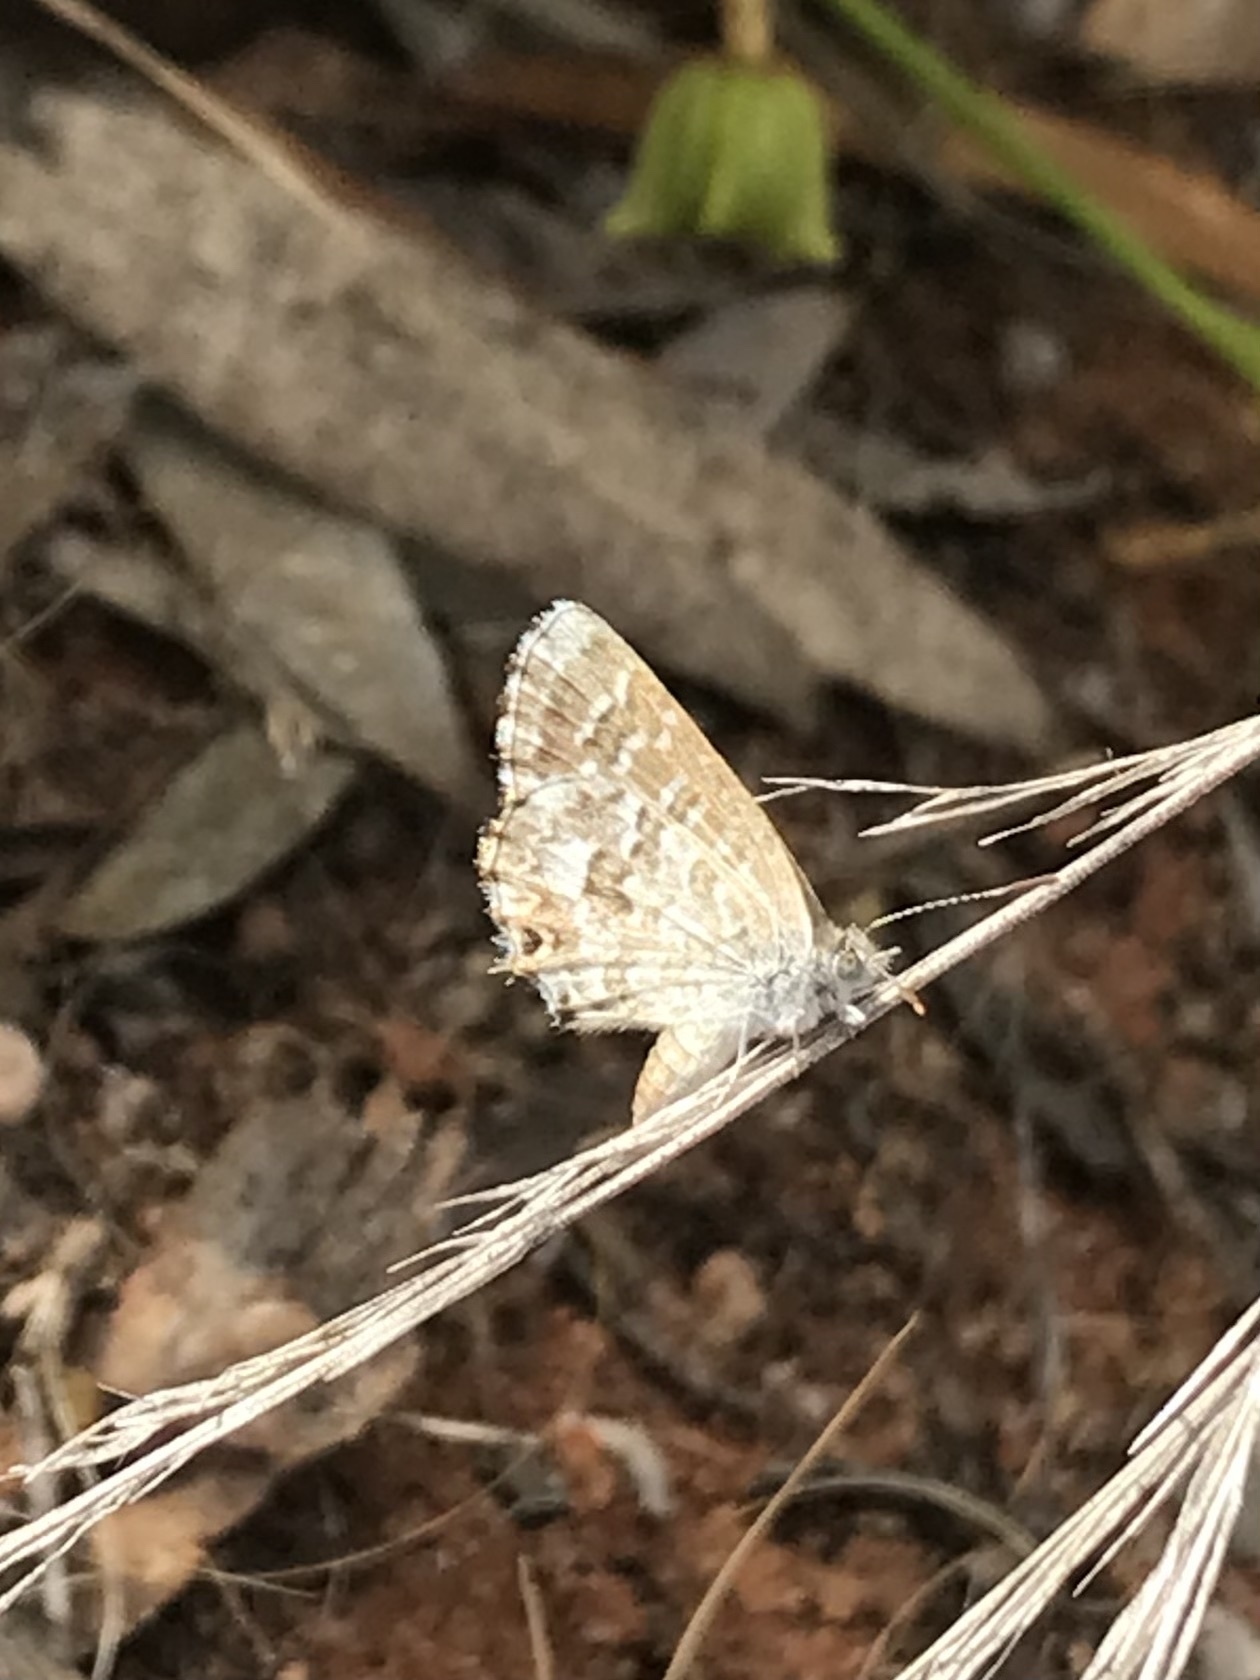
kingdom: Animalia
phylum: Arthropoda
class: Insecta
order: Lepidoptera
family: Lycaenidae
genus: Theclinesthes
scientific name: Theclinesthes serpentata
